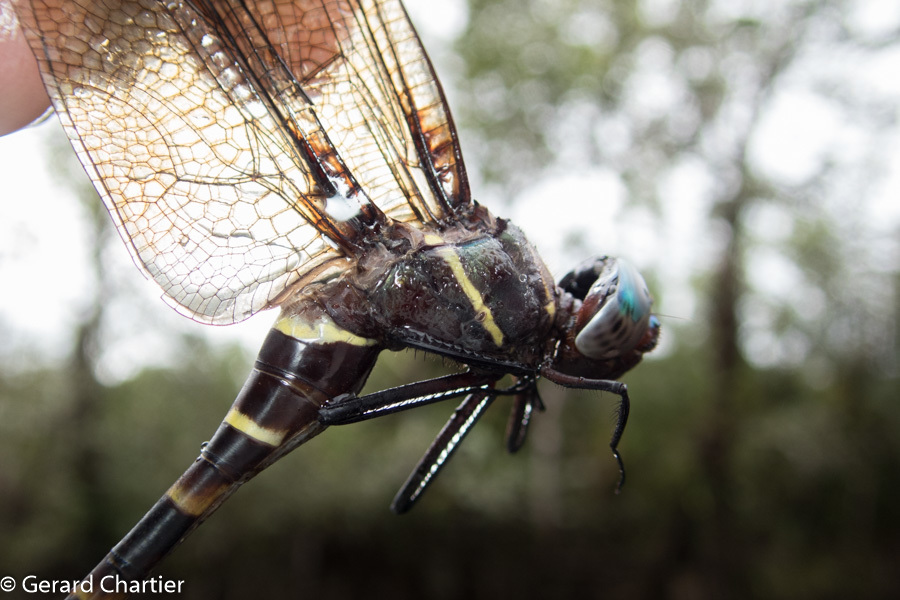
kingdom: Animalia
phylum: Arthropoda
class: Insecta
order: Odonata
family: Macromiidae
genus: Epophthalmia
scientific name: Epophthalmia vittigera
